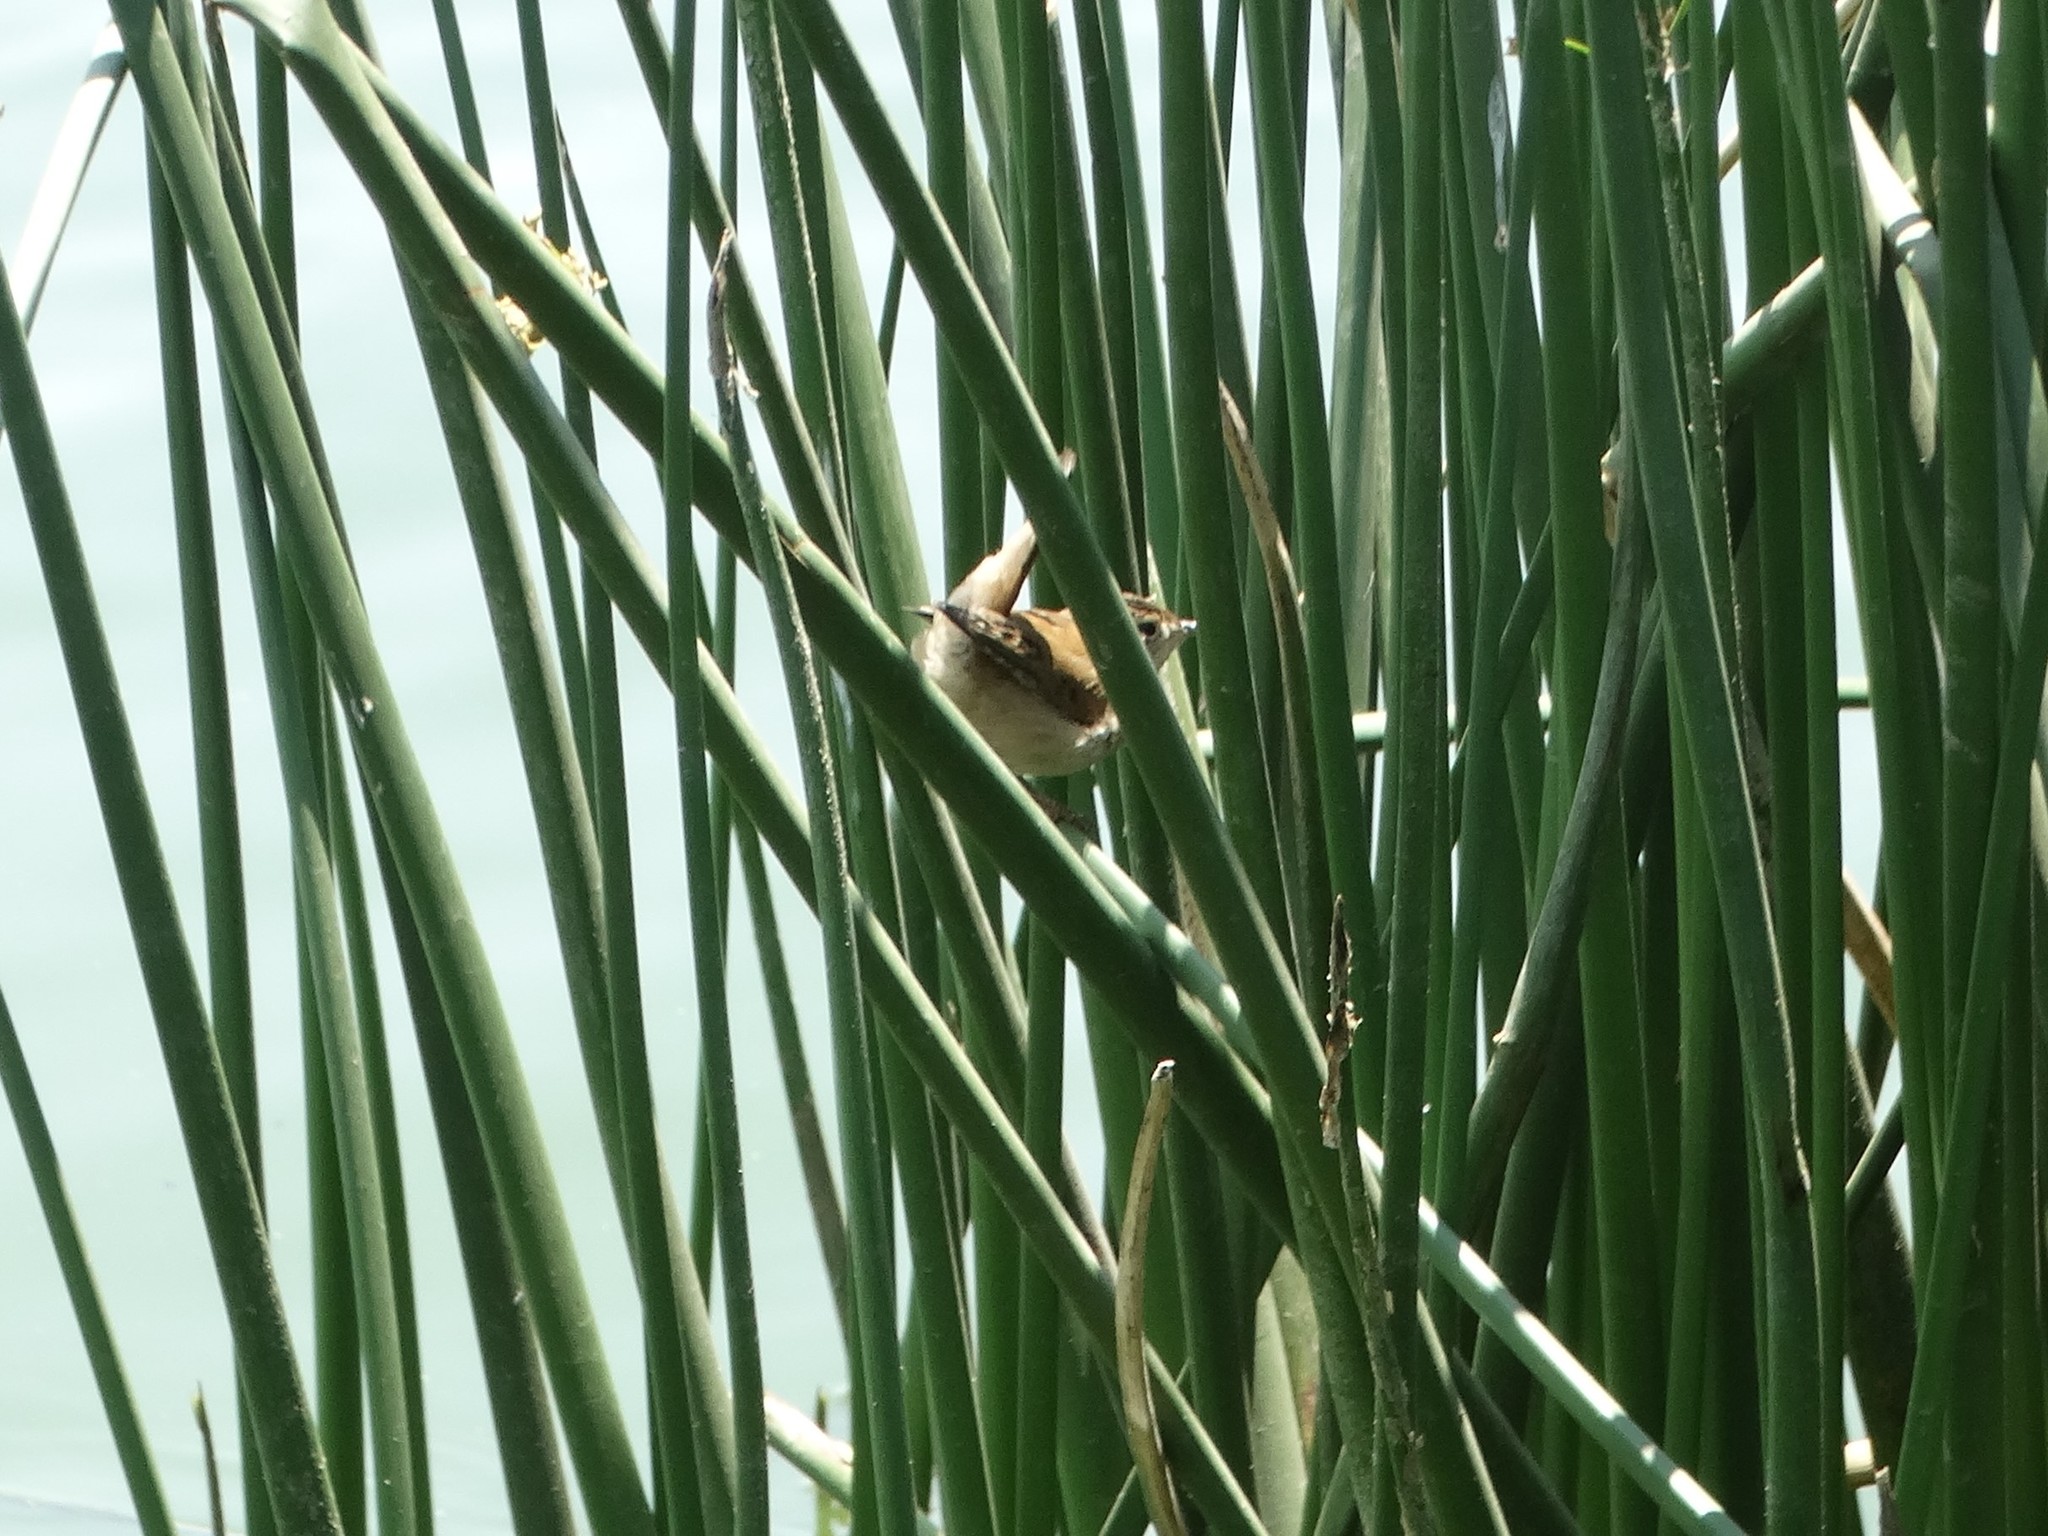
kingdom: Animalia
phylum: Chordata
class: Aves
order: Passeriformes
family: Troglodytidae
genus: Cistothorus
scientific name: Cistothorus palustris
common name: Marsh wren
